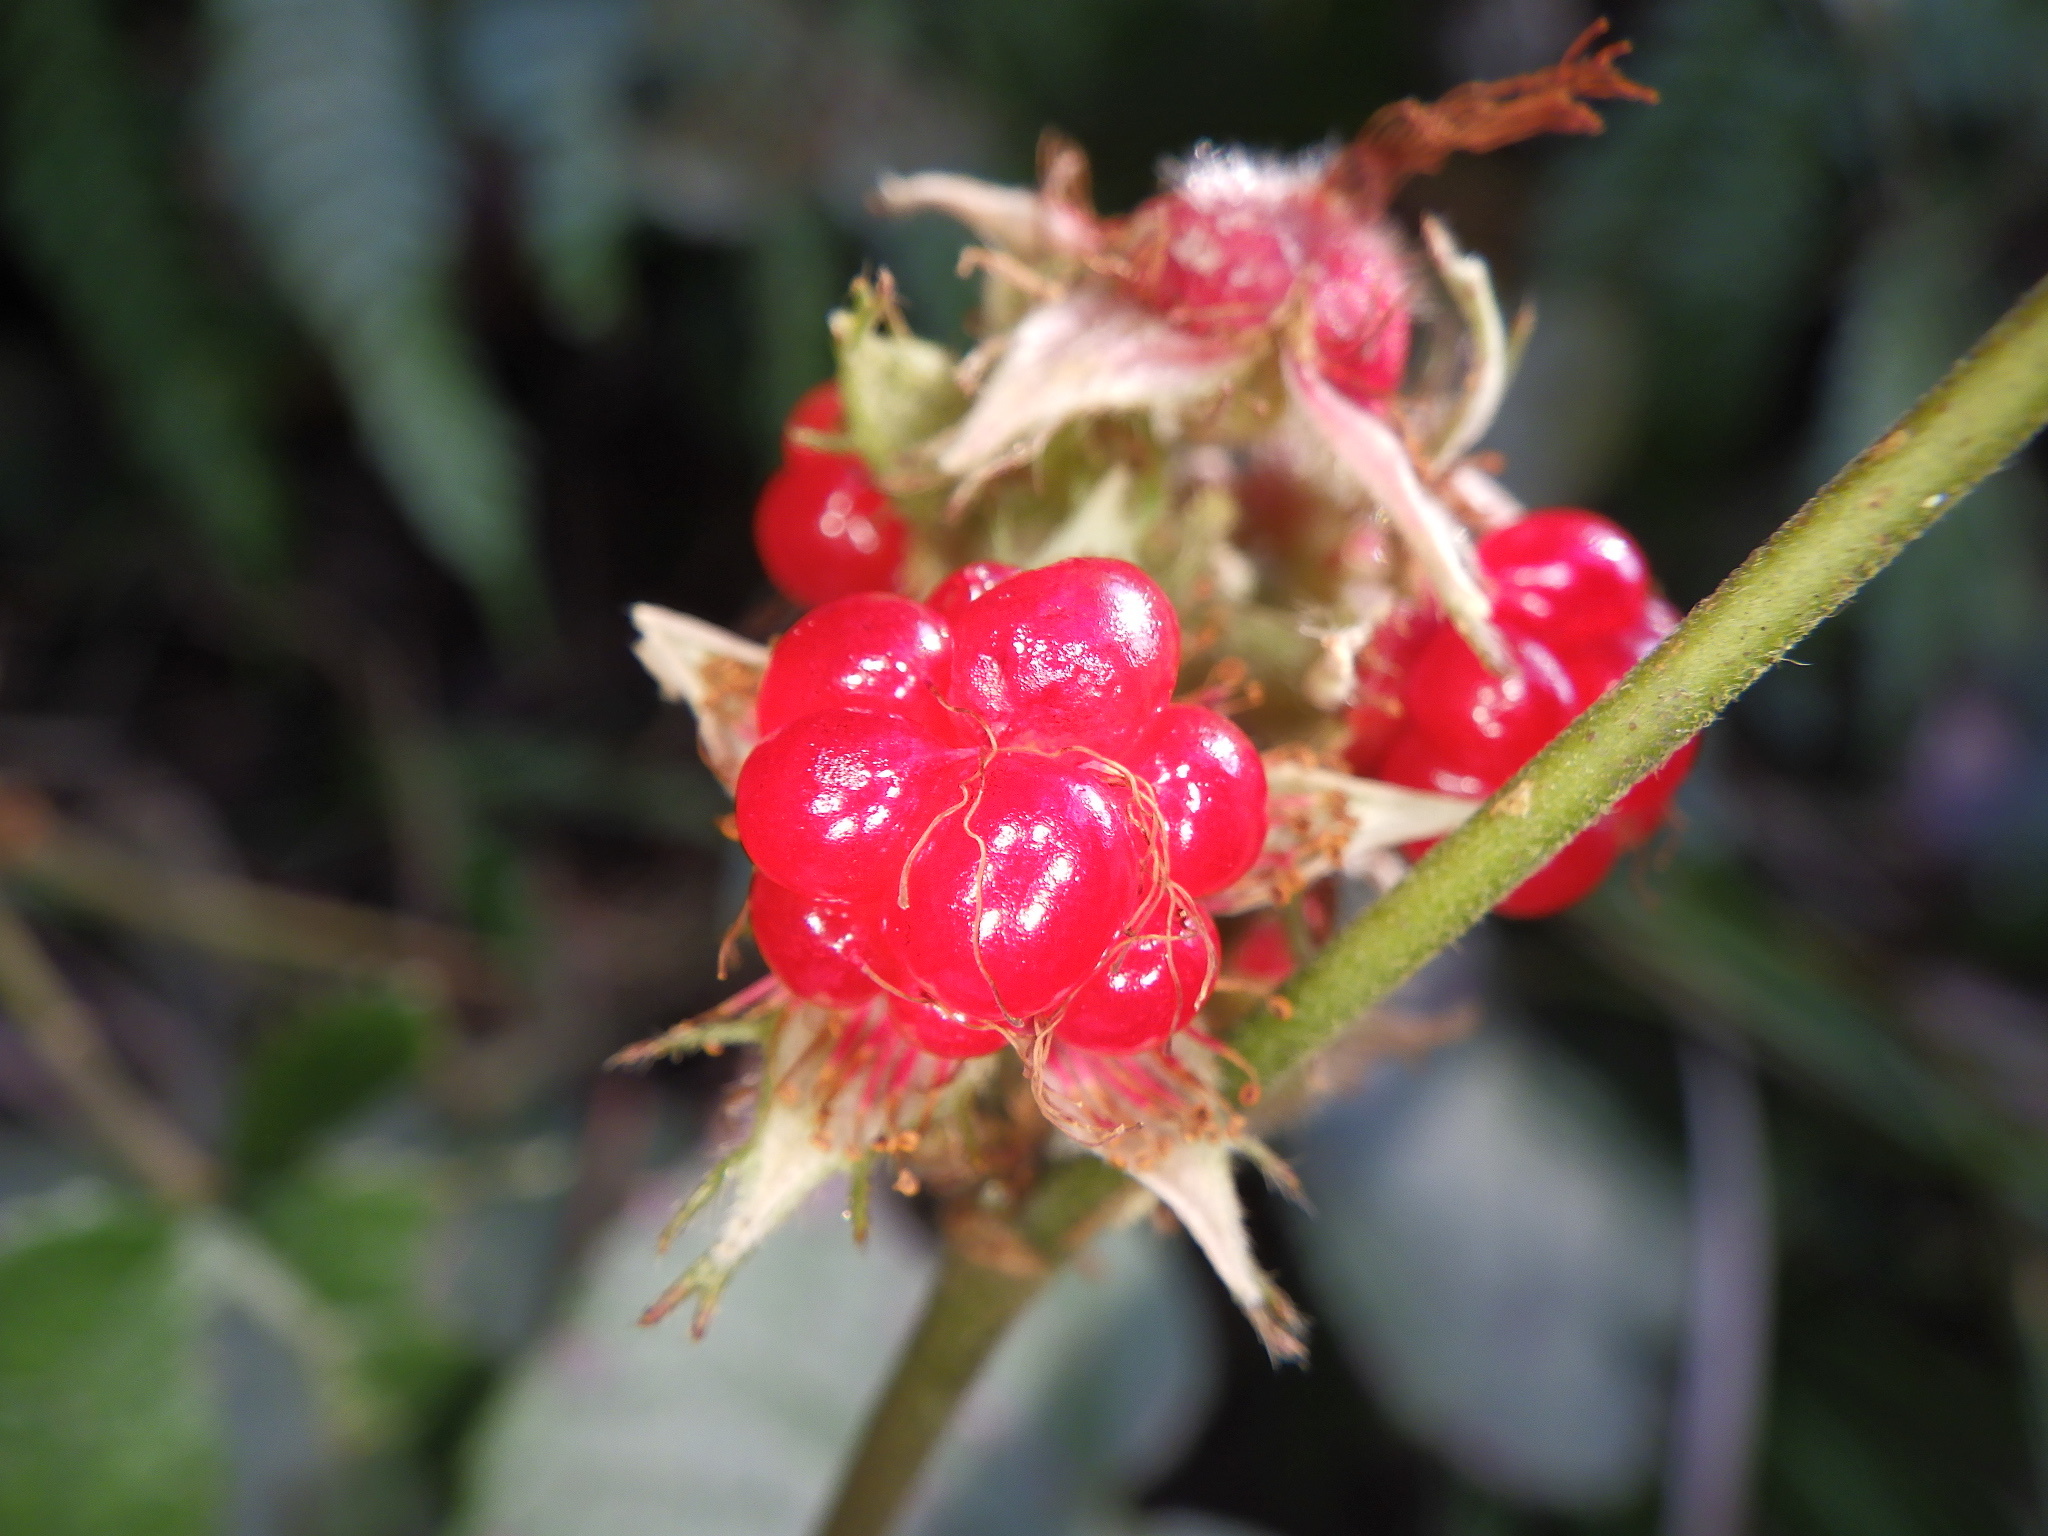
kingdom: Plantae
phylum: Tracheophyta
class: Magnoliopsida
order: Rosales
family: Rosaceae
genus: Rubus
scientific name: Rubus buergeri
